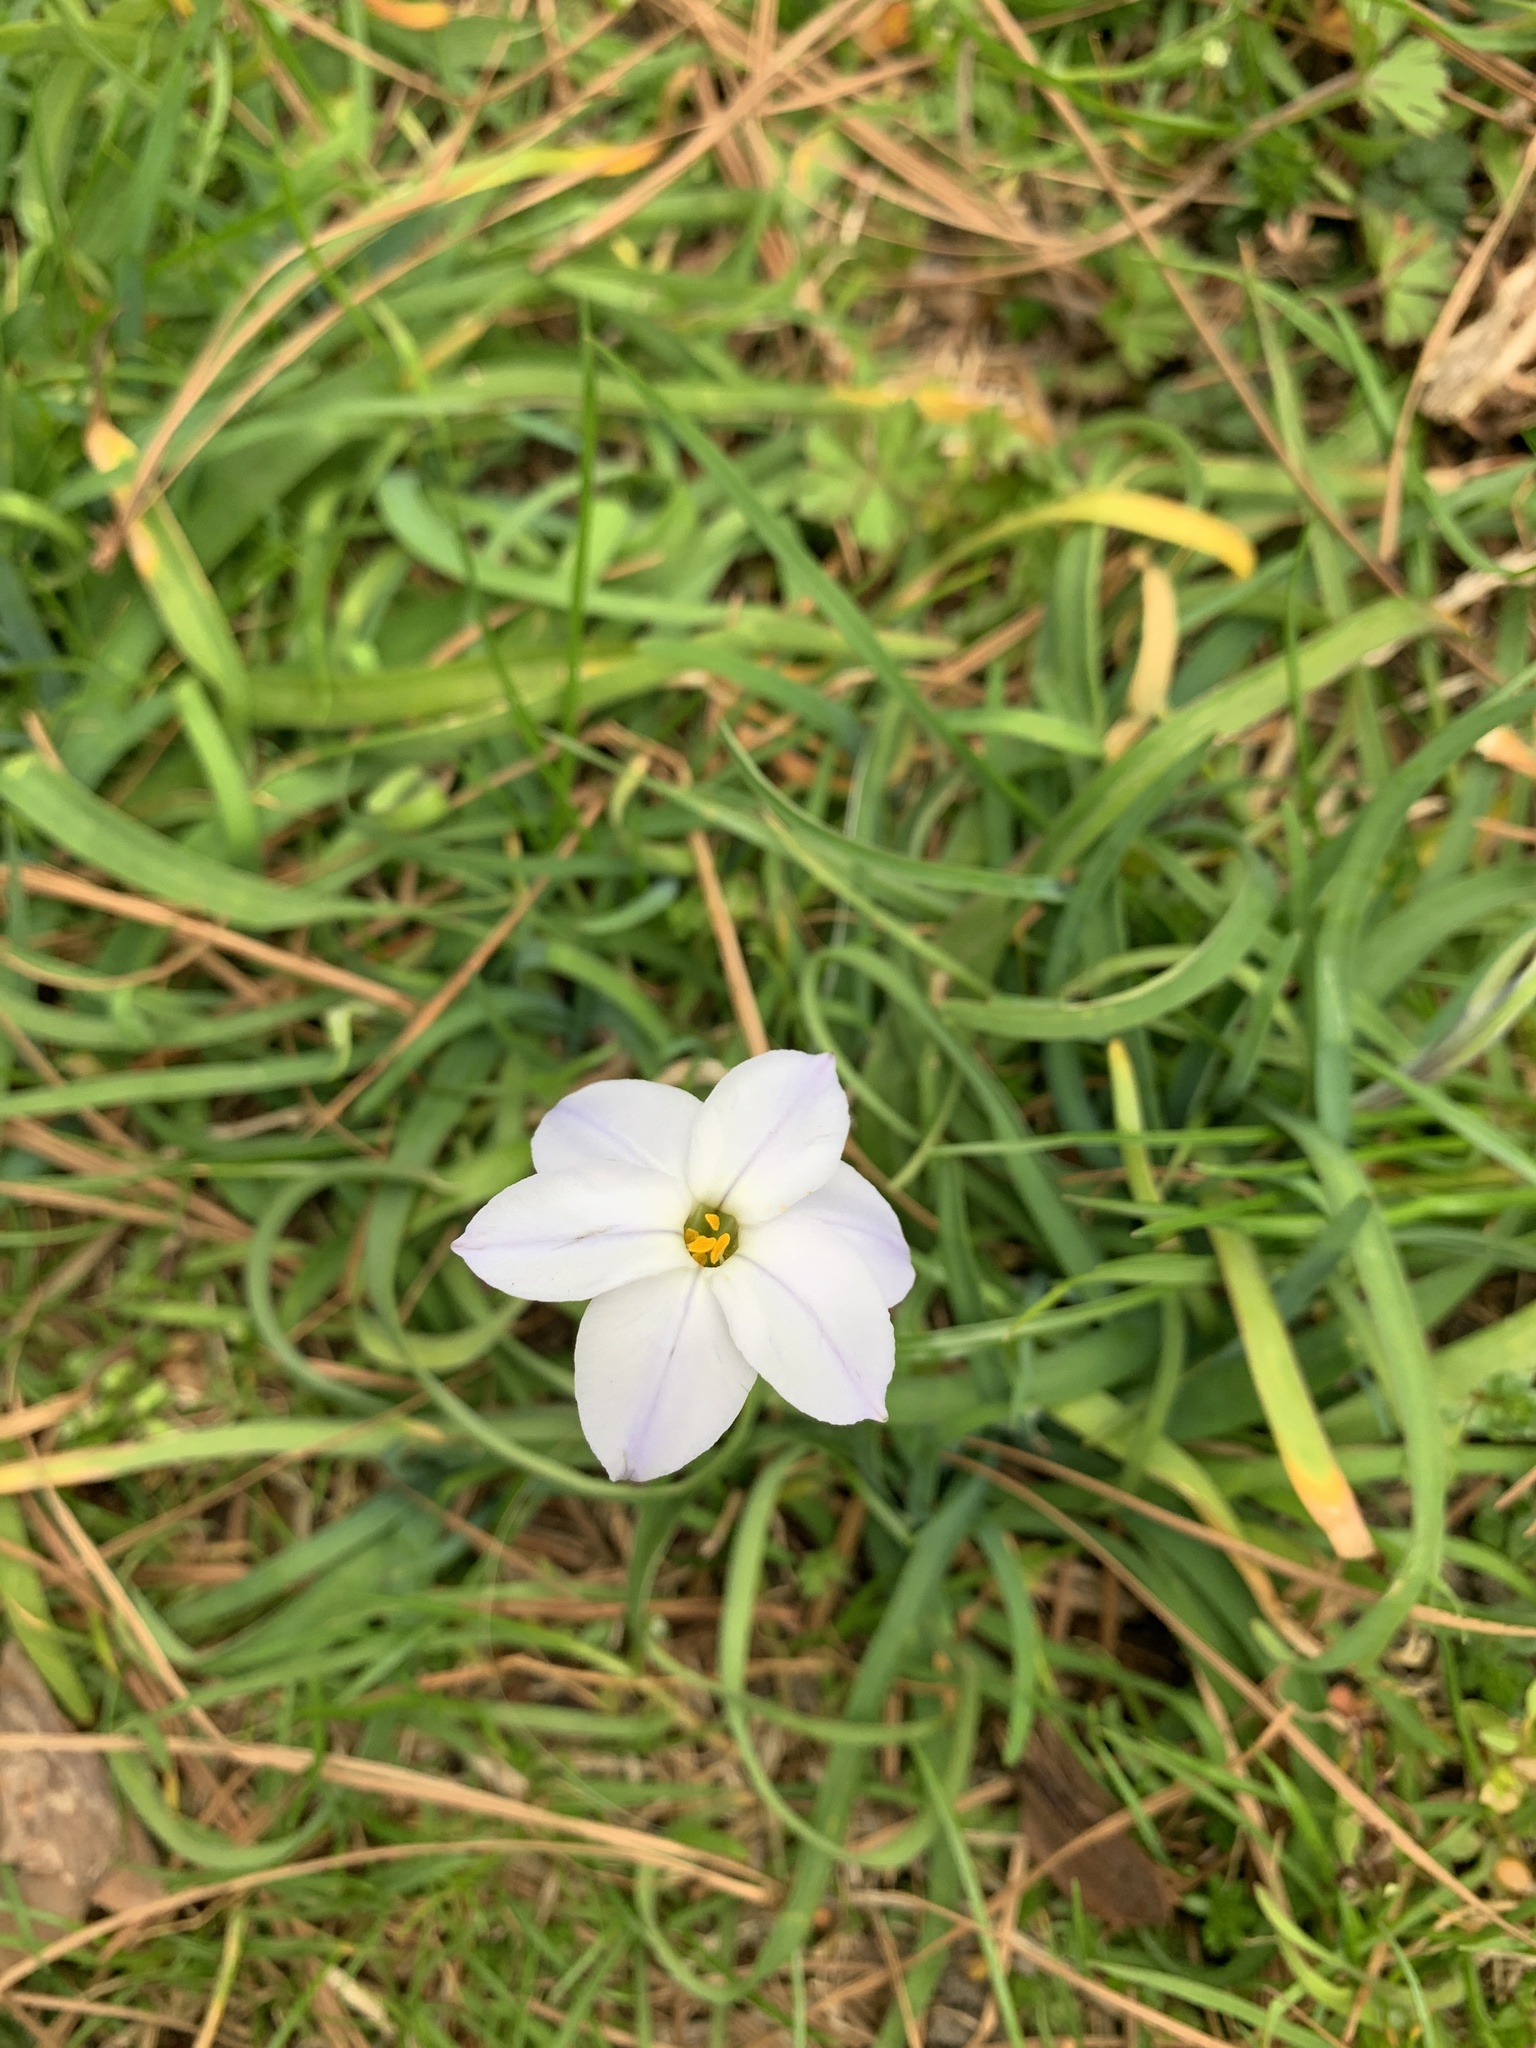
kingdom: Plantae
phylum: Tracheophyta
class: Liliopsida
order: Asparagales
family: Amaryllidaceae
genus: Ipheion
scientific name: Ipheion uniflorum
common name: Spring starflower
